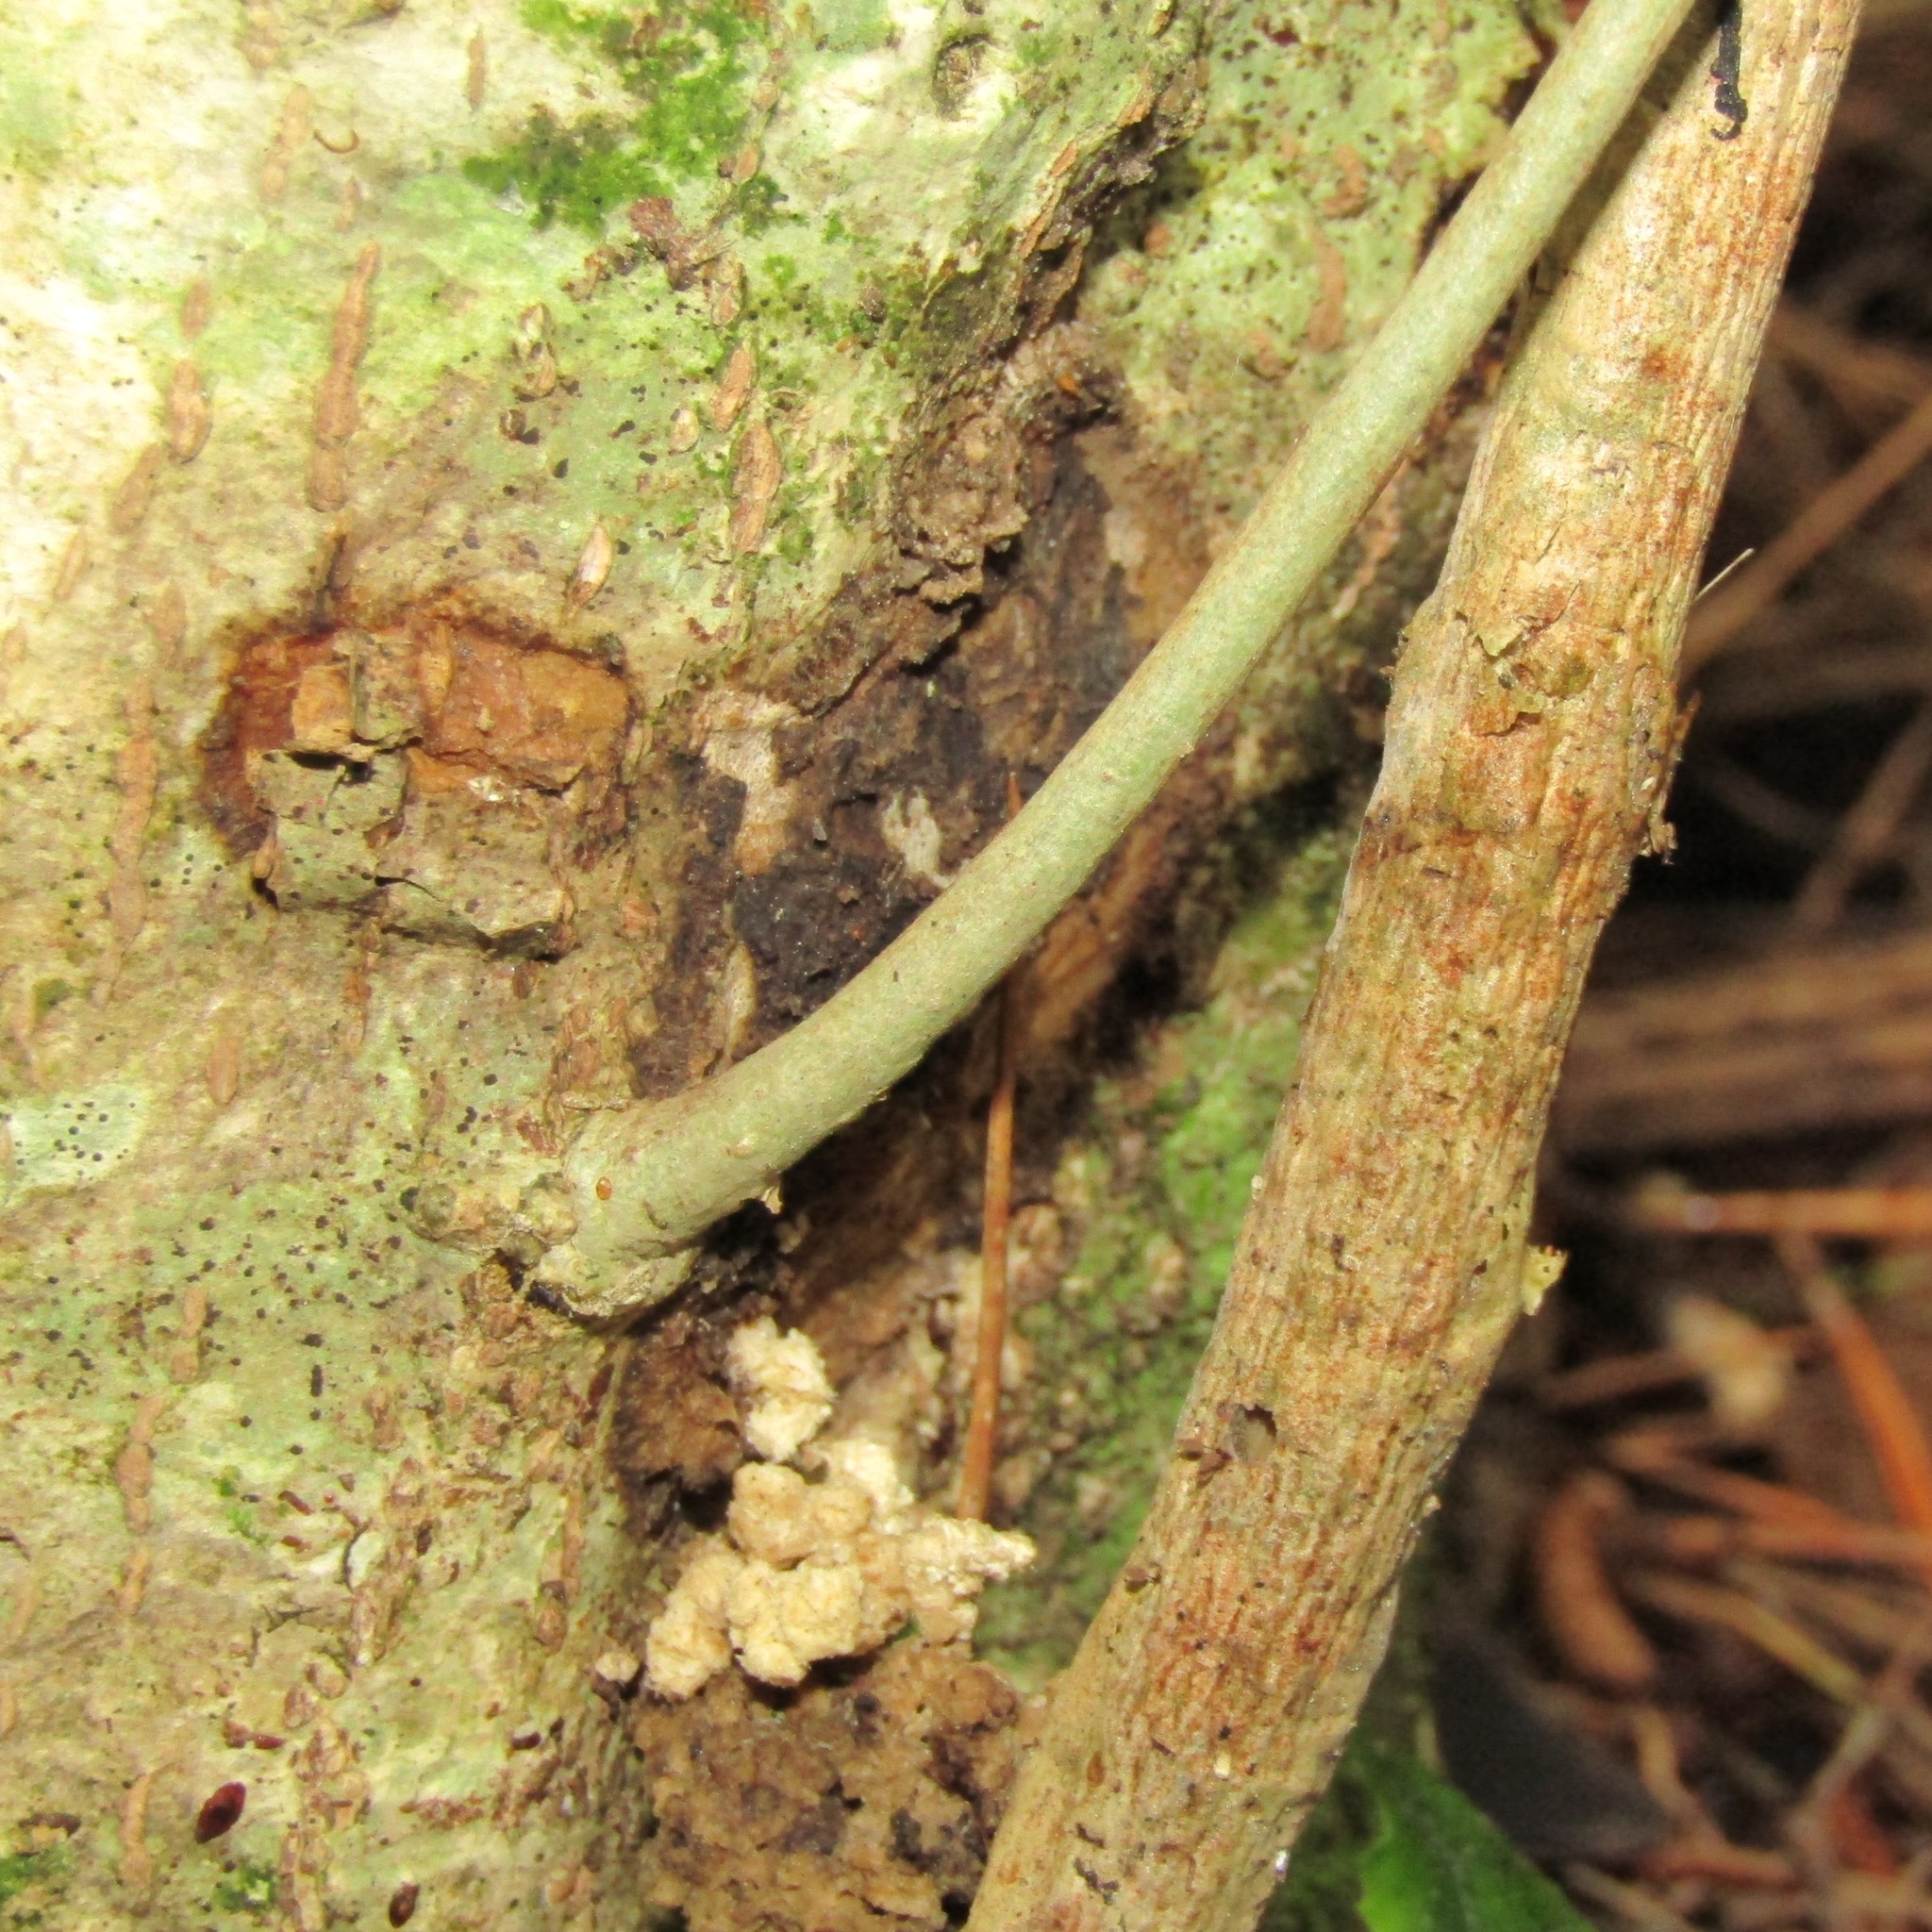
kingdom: Animalia
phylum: Arthropoda
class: Insecta
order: Lepidoptera
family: Hepialidae
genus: Aenetus
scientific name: Aenetus virescens
